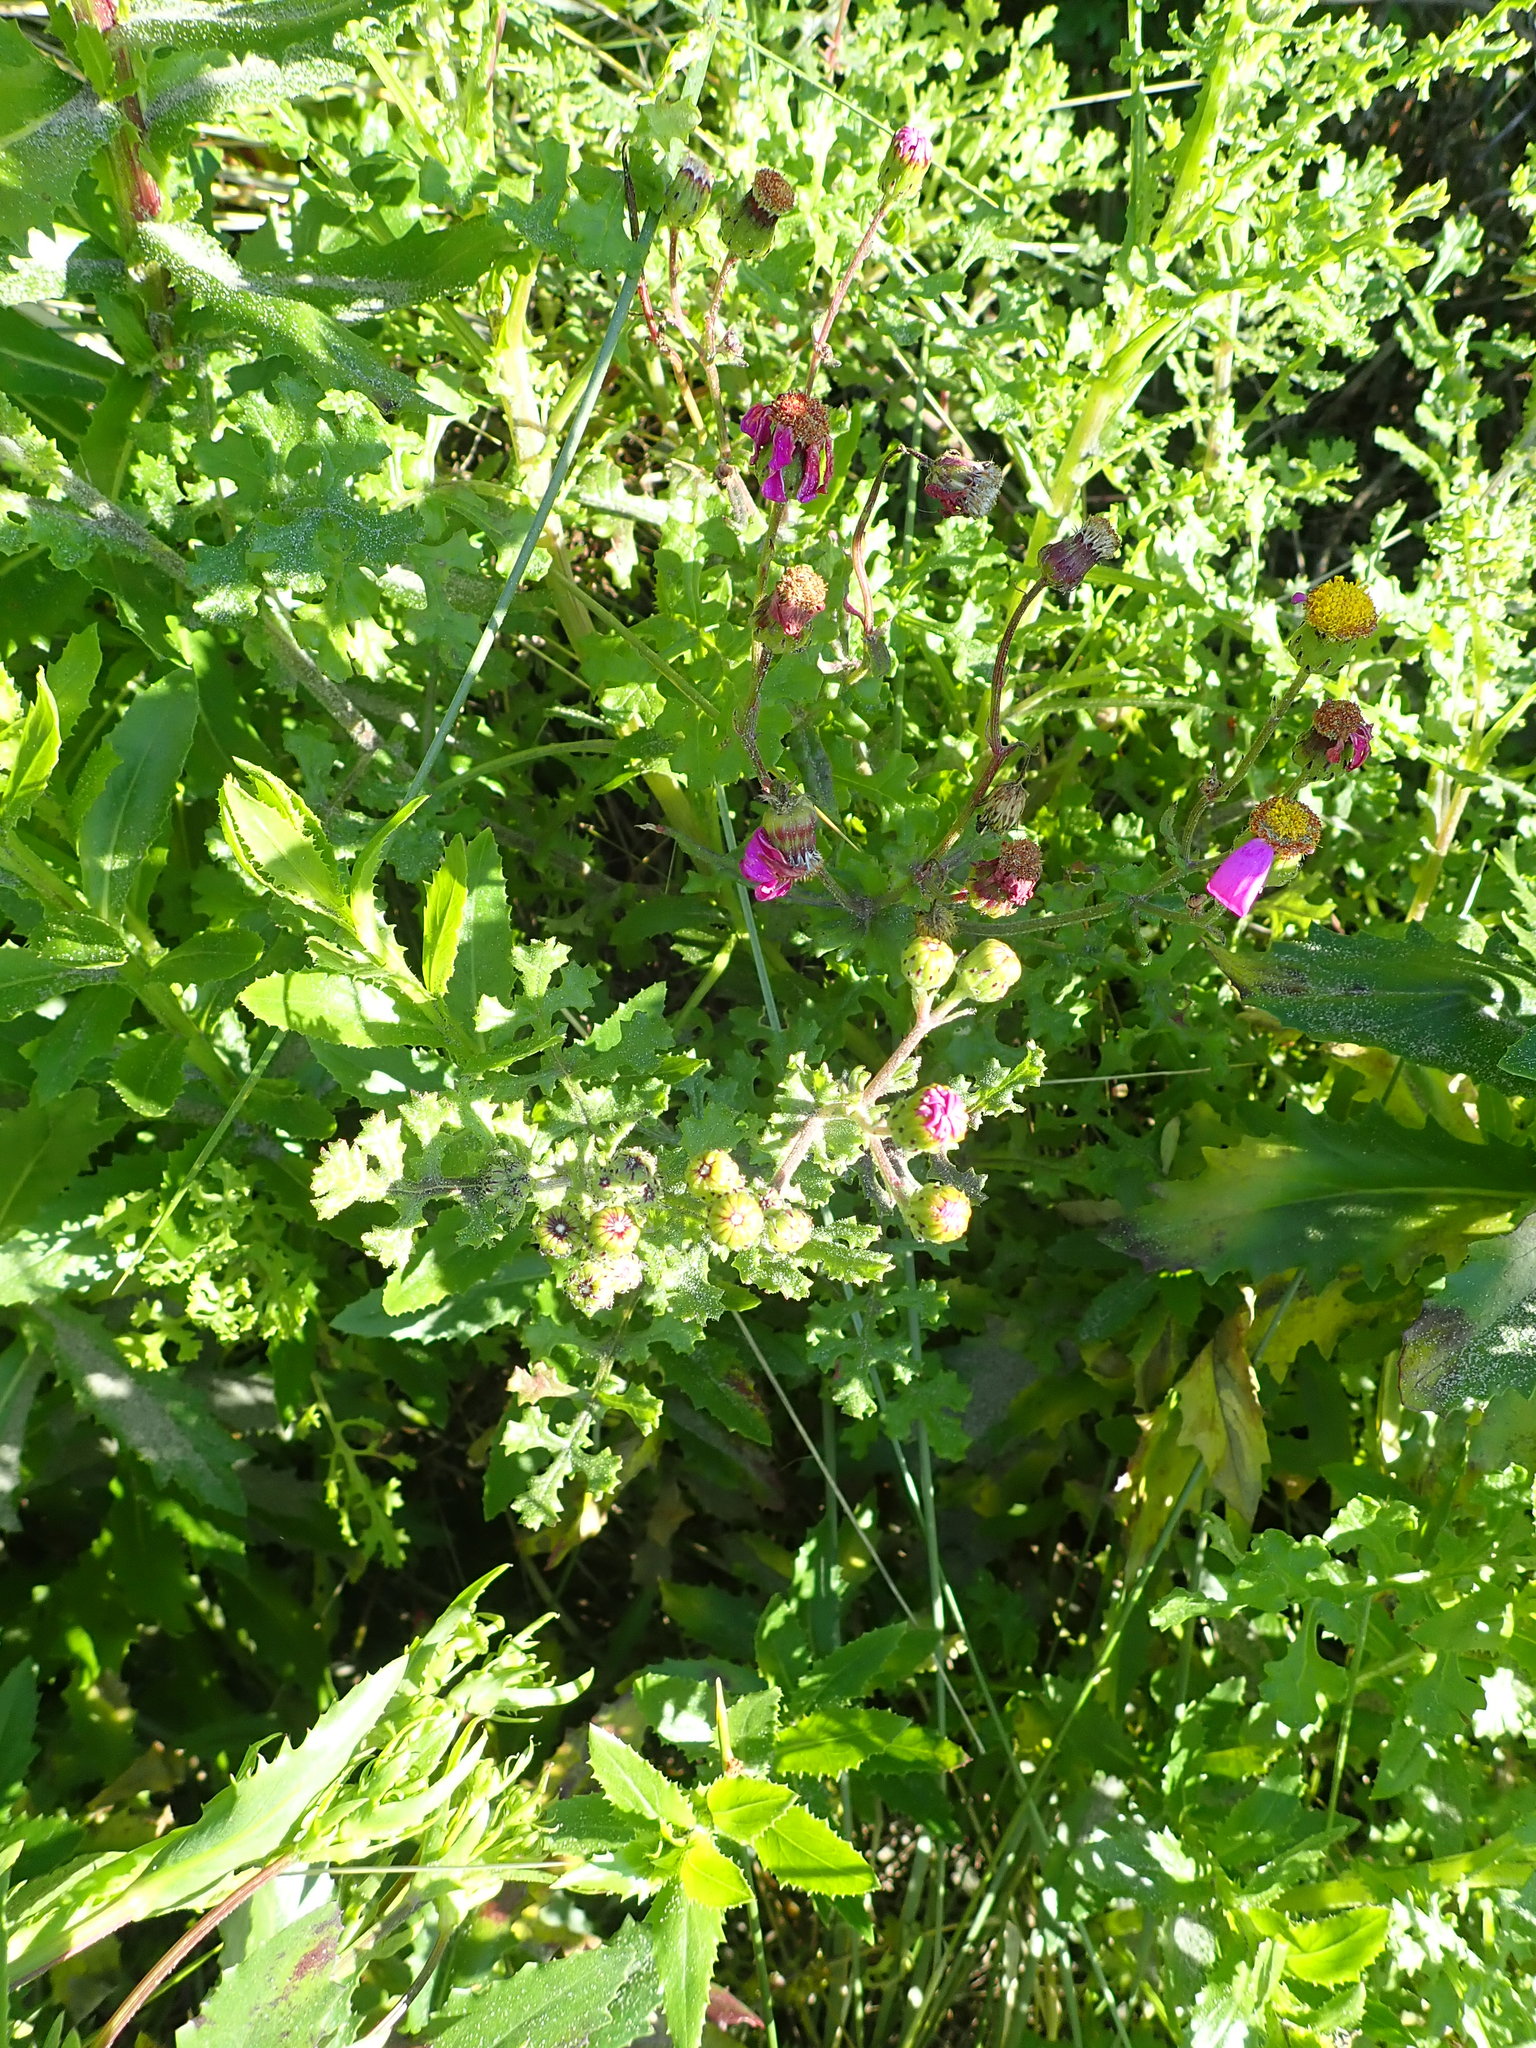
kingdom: Plantae
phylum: Tracheophyta
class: Magnoliopsida
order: Asterales
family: Asteraceae
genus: Senecio
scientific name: Senecio elegans
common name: Purple groundsel
